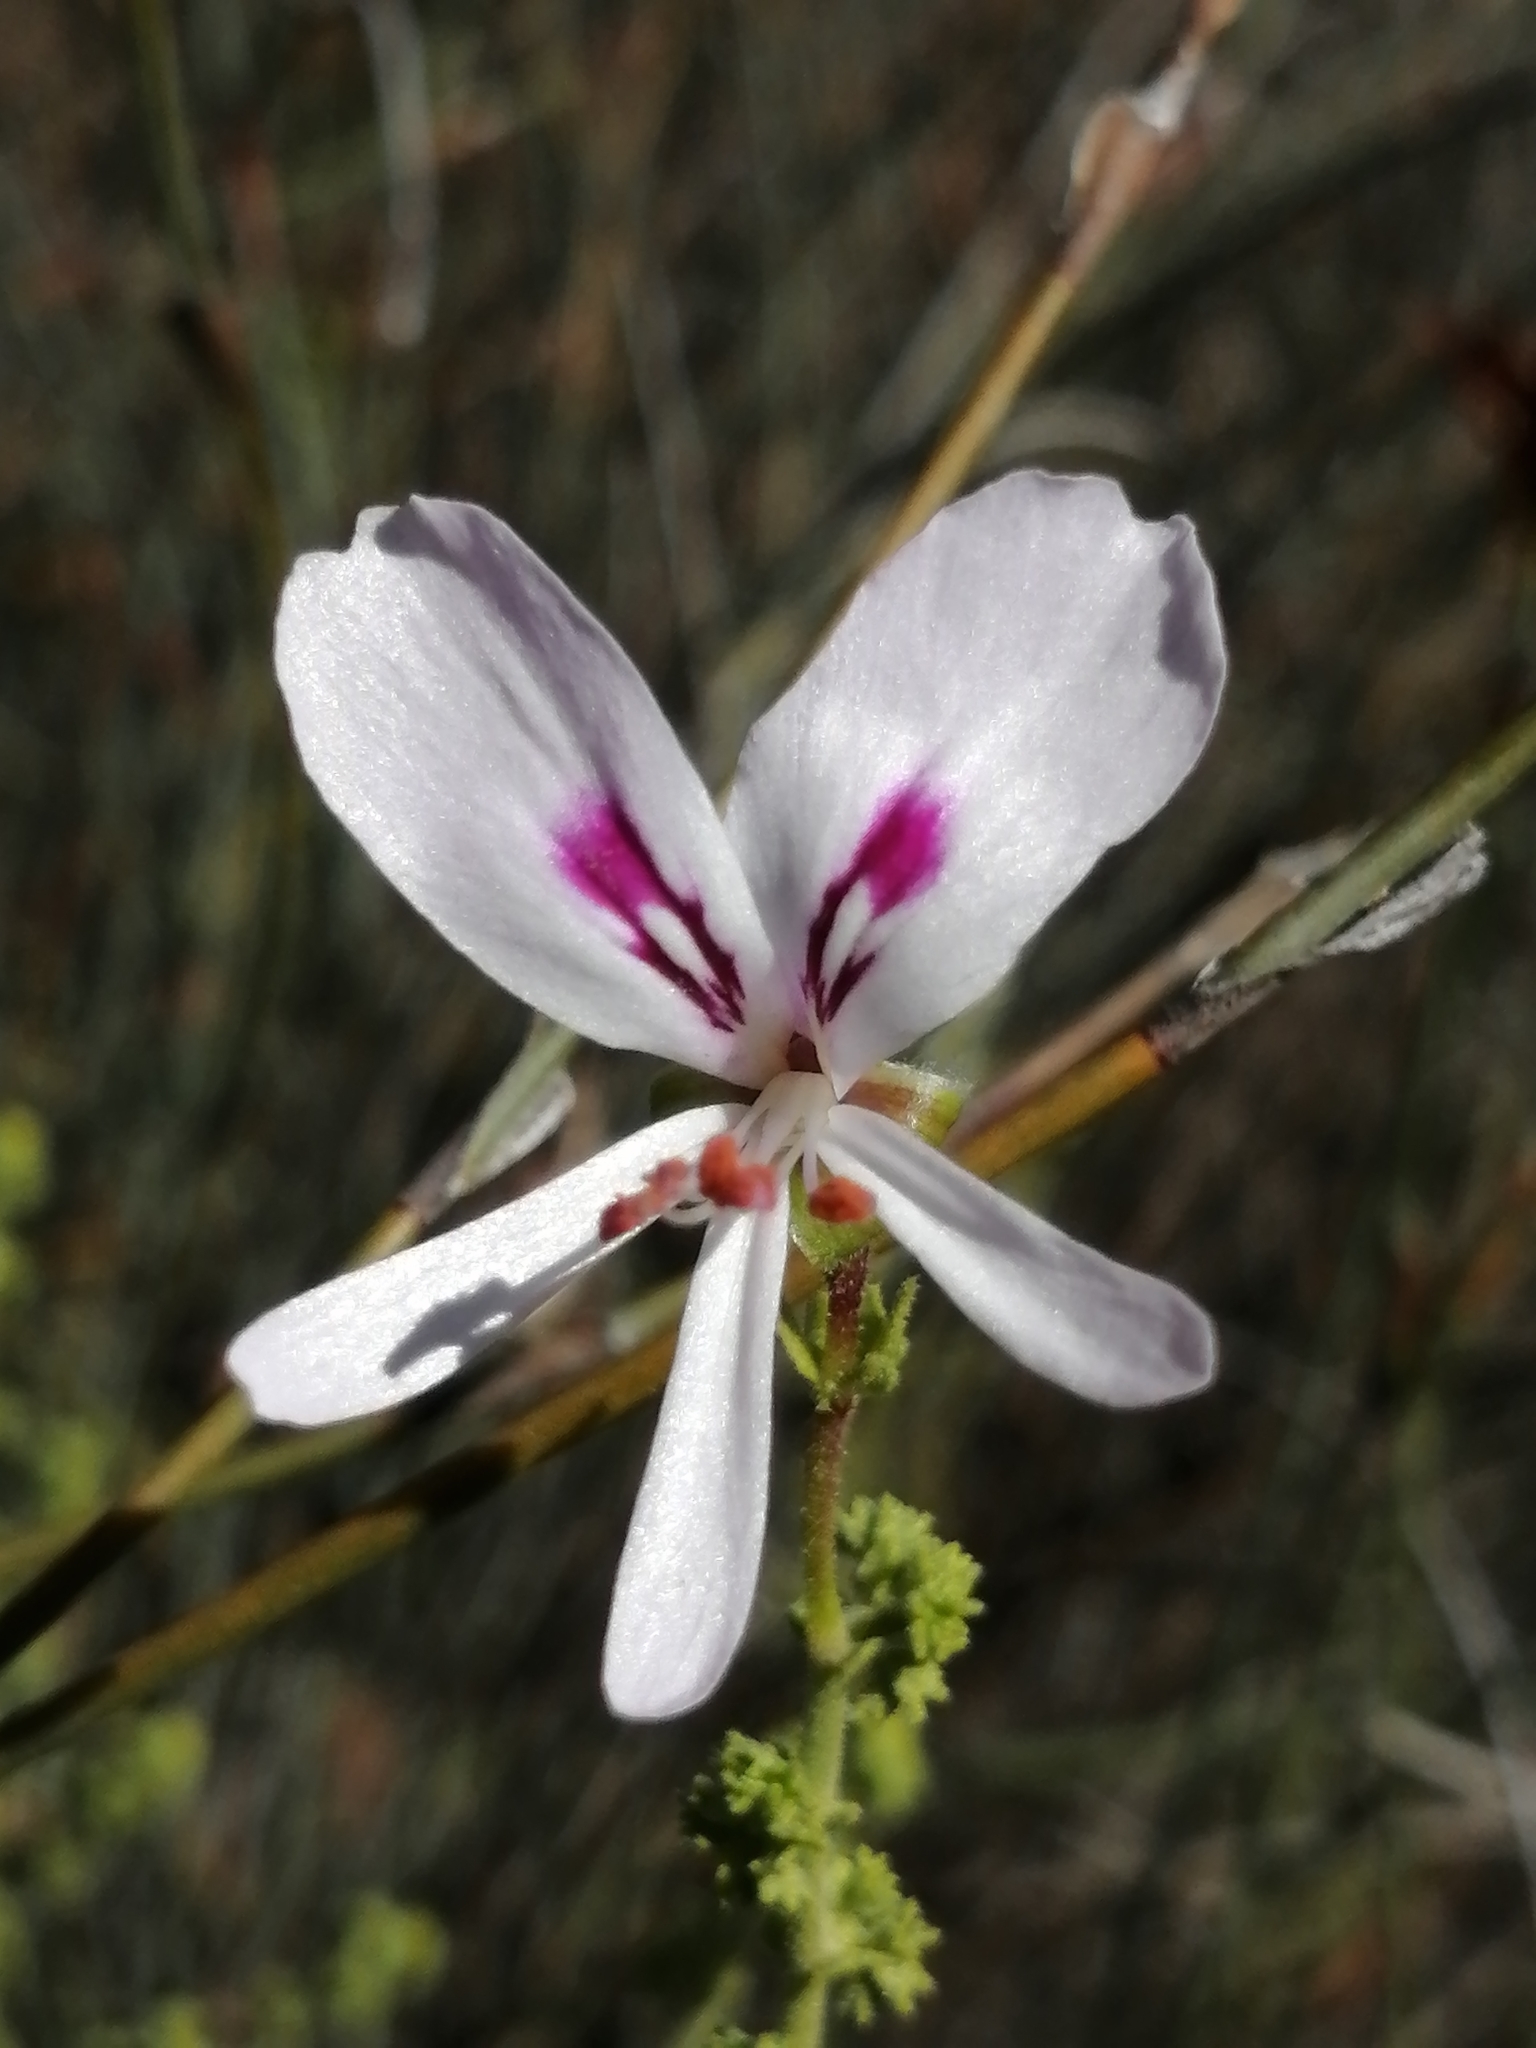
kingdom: Plantae
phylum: Tracheophyta
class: Magnoliopsida
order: Geraniales
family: Geraniaceae
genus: Pelargonium
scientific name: Pelargonium crispum
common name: Crisped-leaf pelargonium
